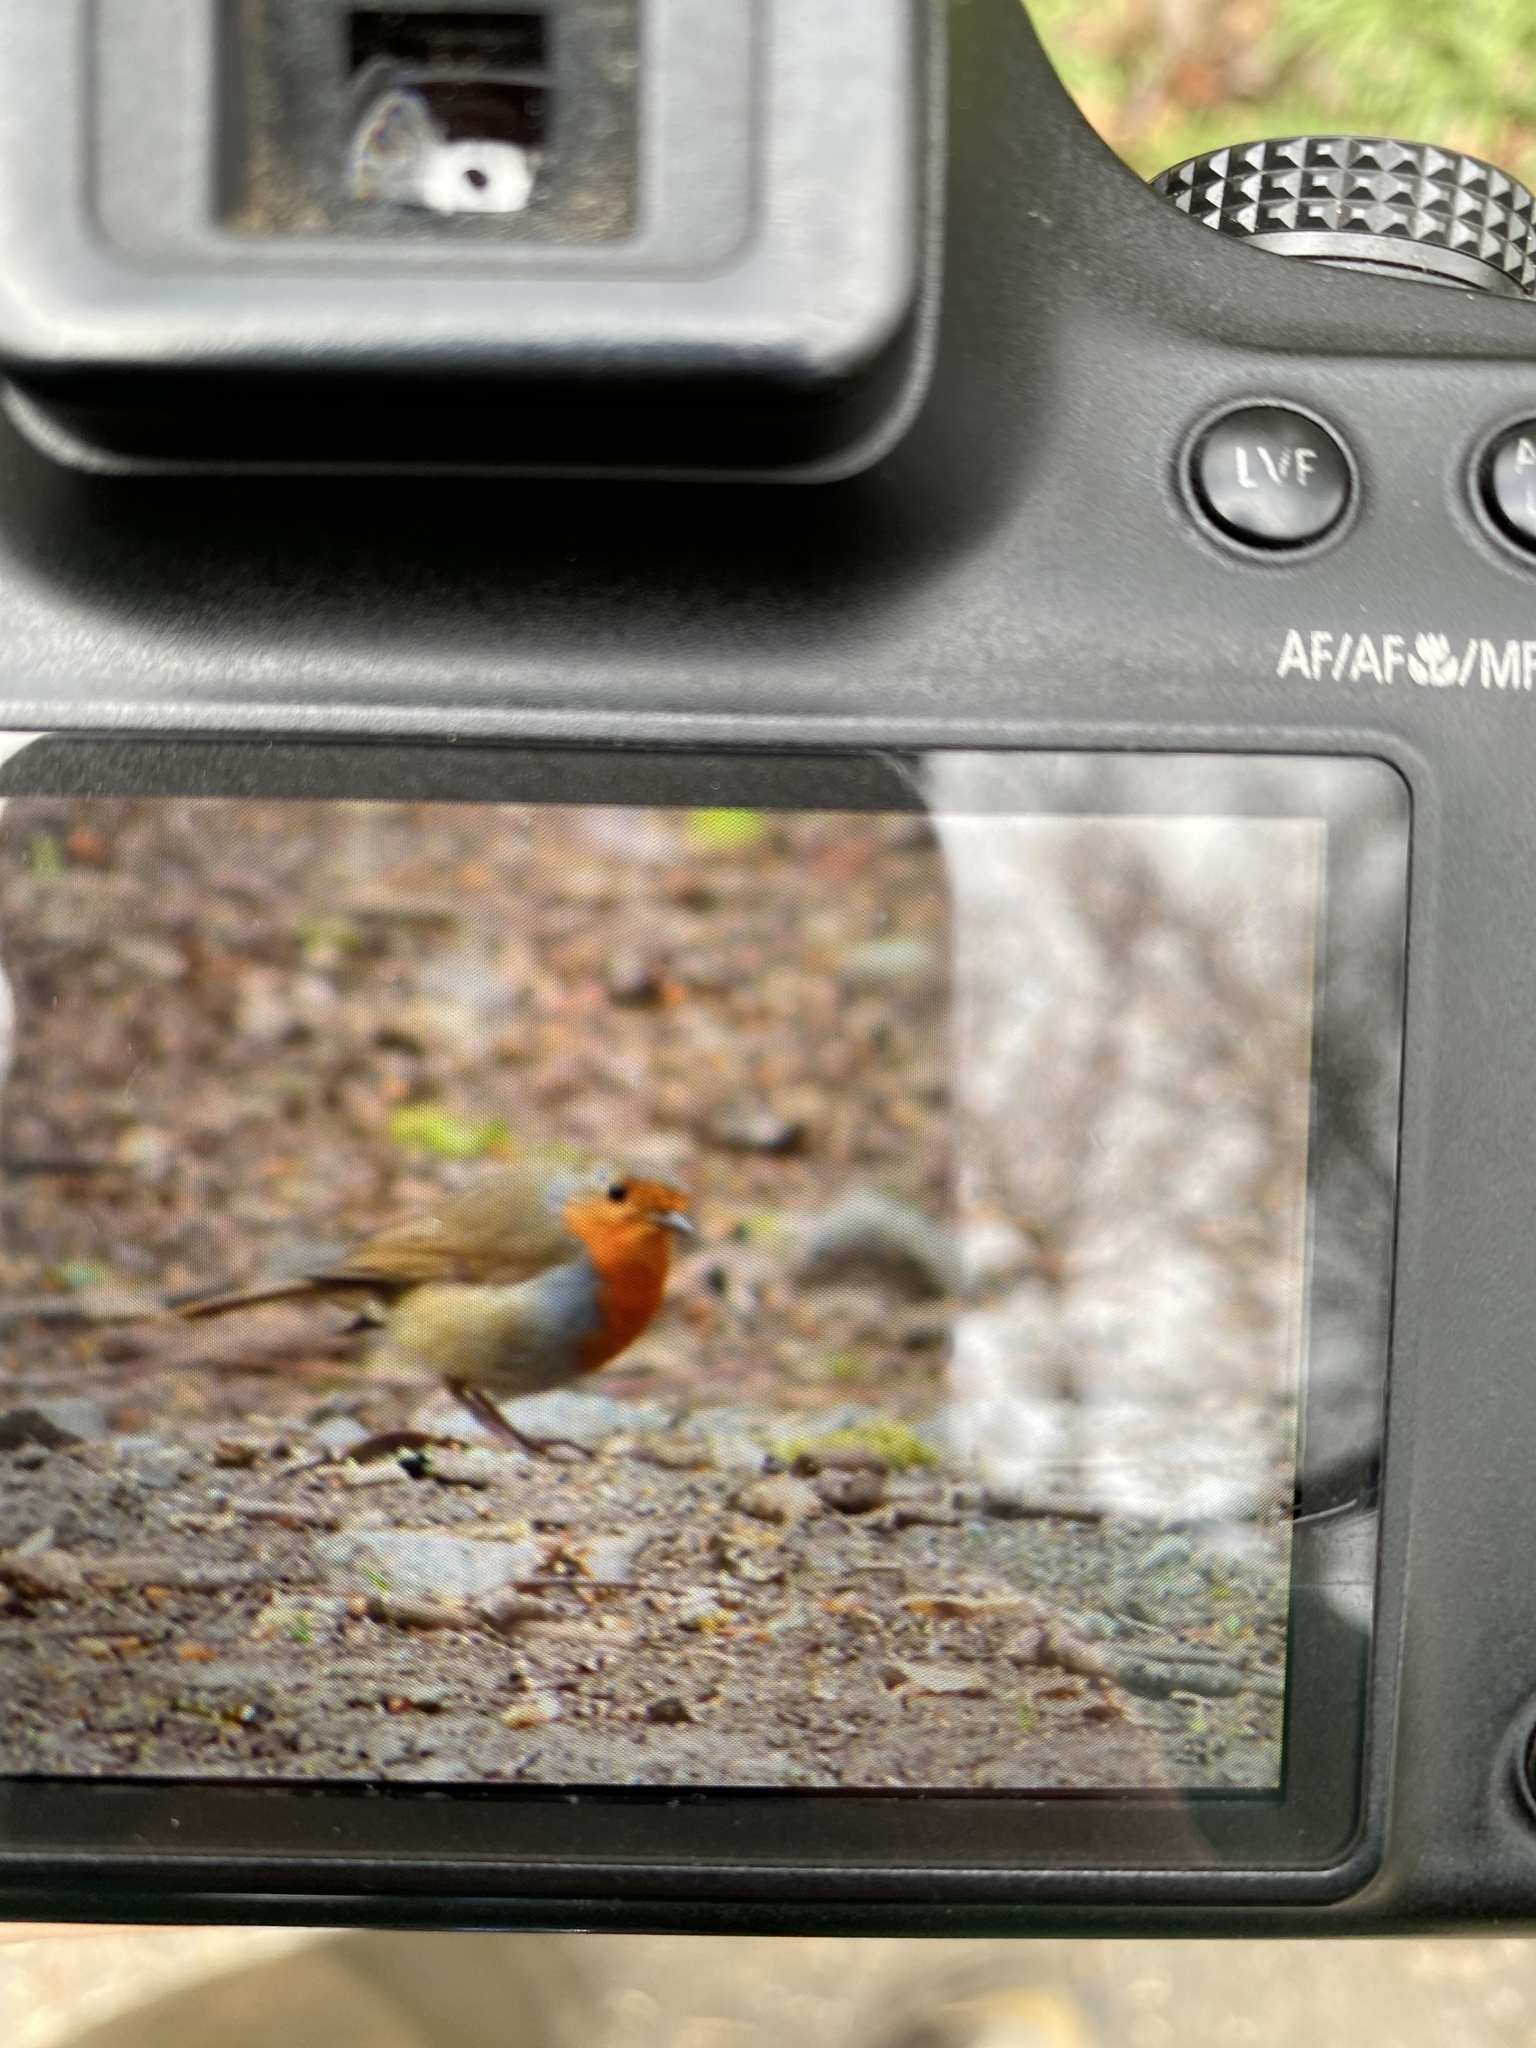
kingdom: Animalia
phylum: Chordata
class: Aves
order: Passeriformes
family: Muscicapidae
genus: Erithacus
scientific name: Erithacus rubecula
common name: European robin
